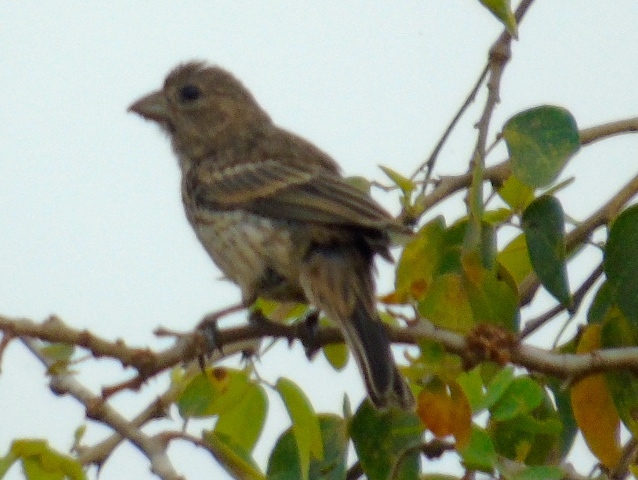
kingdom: Animalia
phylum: Chordata
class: Aves
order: Passeriformes
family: Fringillidae
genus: Haemorhous
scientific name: Haemorhous mexicanus
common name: House finch
